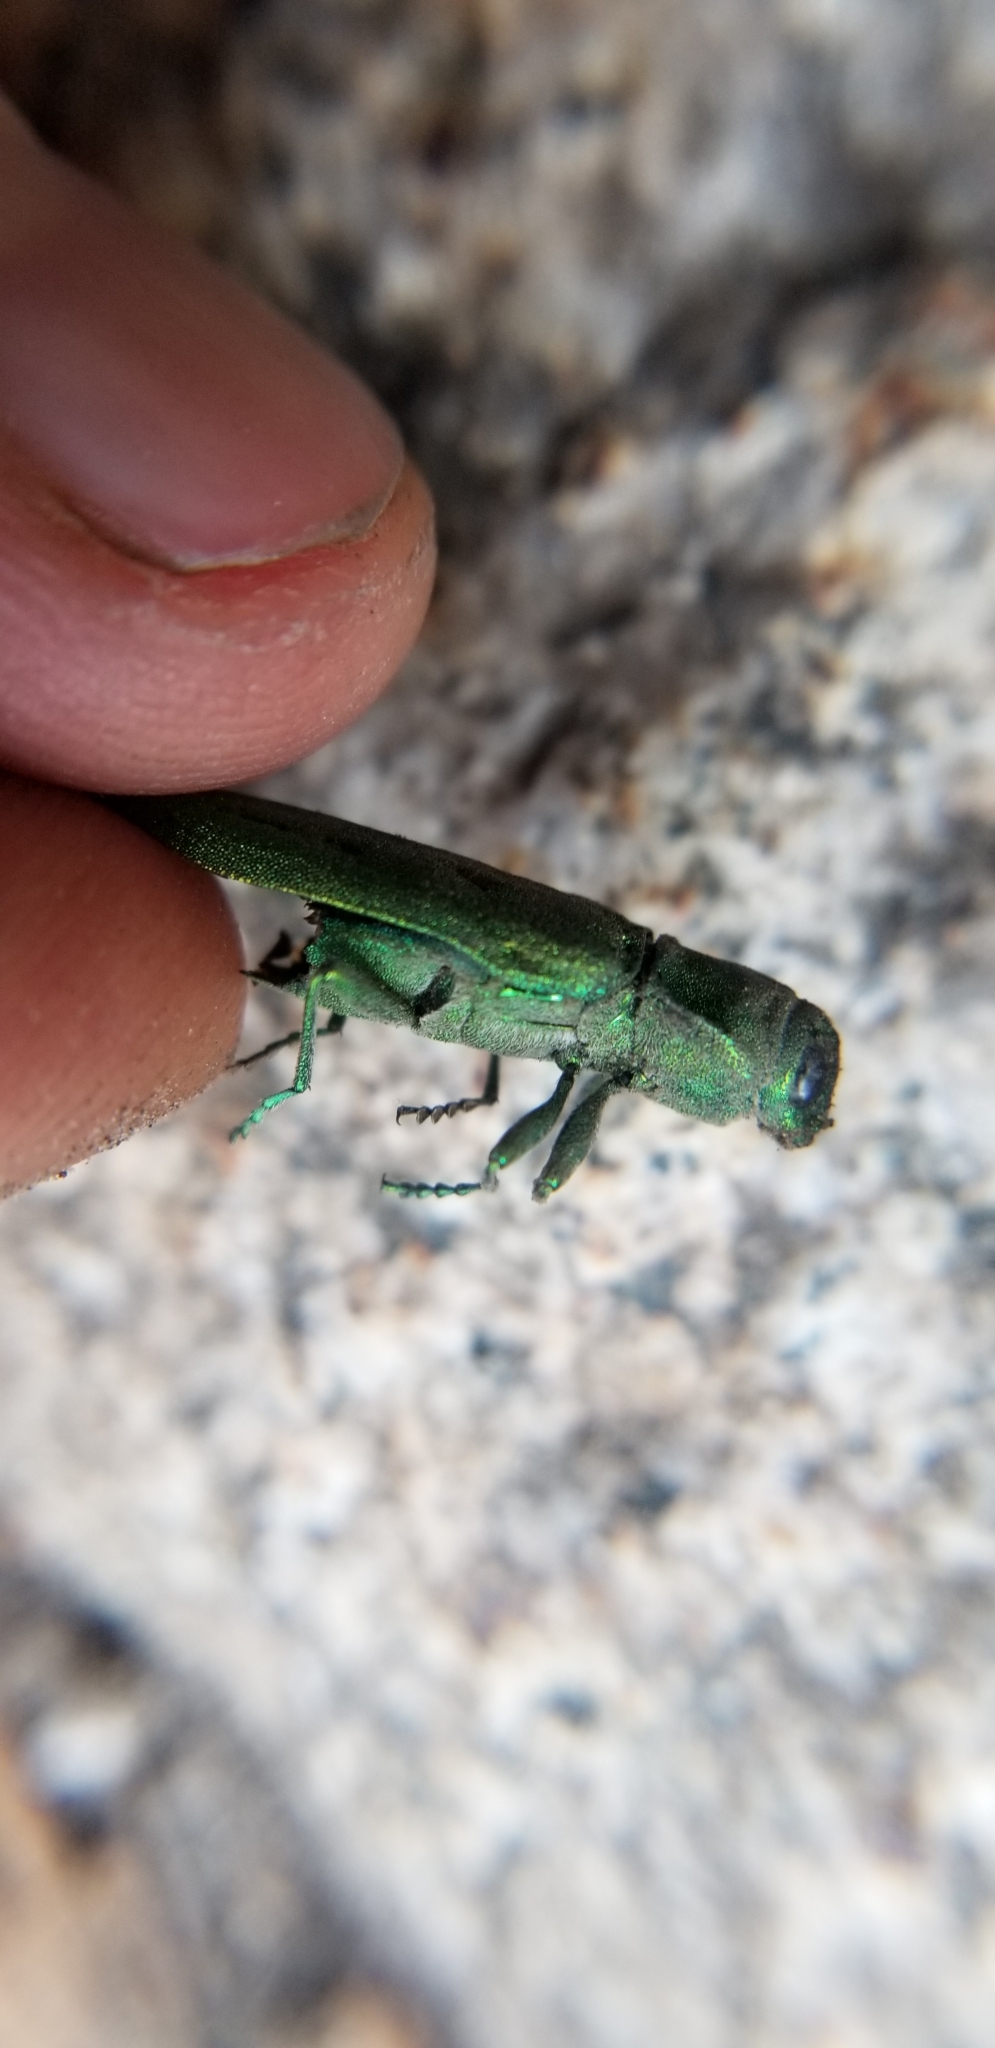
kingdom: Animalia
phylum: Arthropoda
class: Insecta
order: Coleoptera
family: Buprestidae
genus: Trachykele
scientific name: Trachykele opulenta
